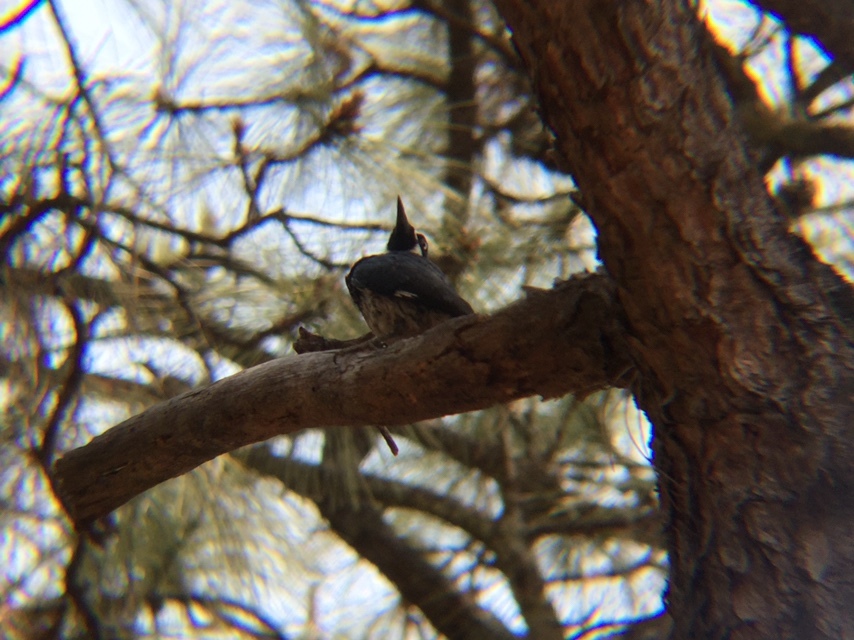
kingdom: Animalia
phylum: Chordata
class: Aves
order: Piciformes
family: Picidae
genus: Melanerpes
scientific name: Melanerpes formicivorus
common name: Acorn woodpecker
